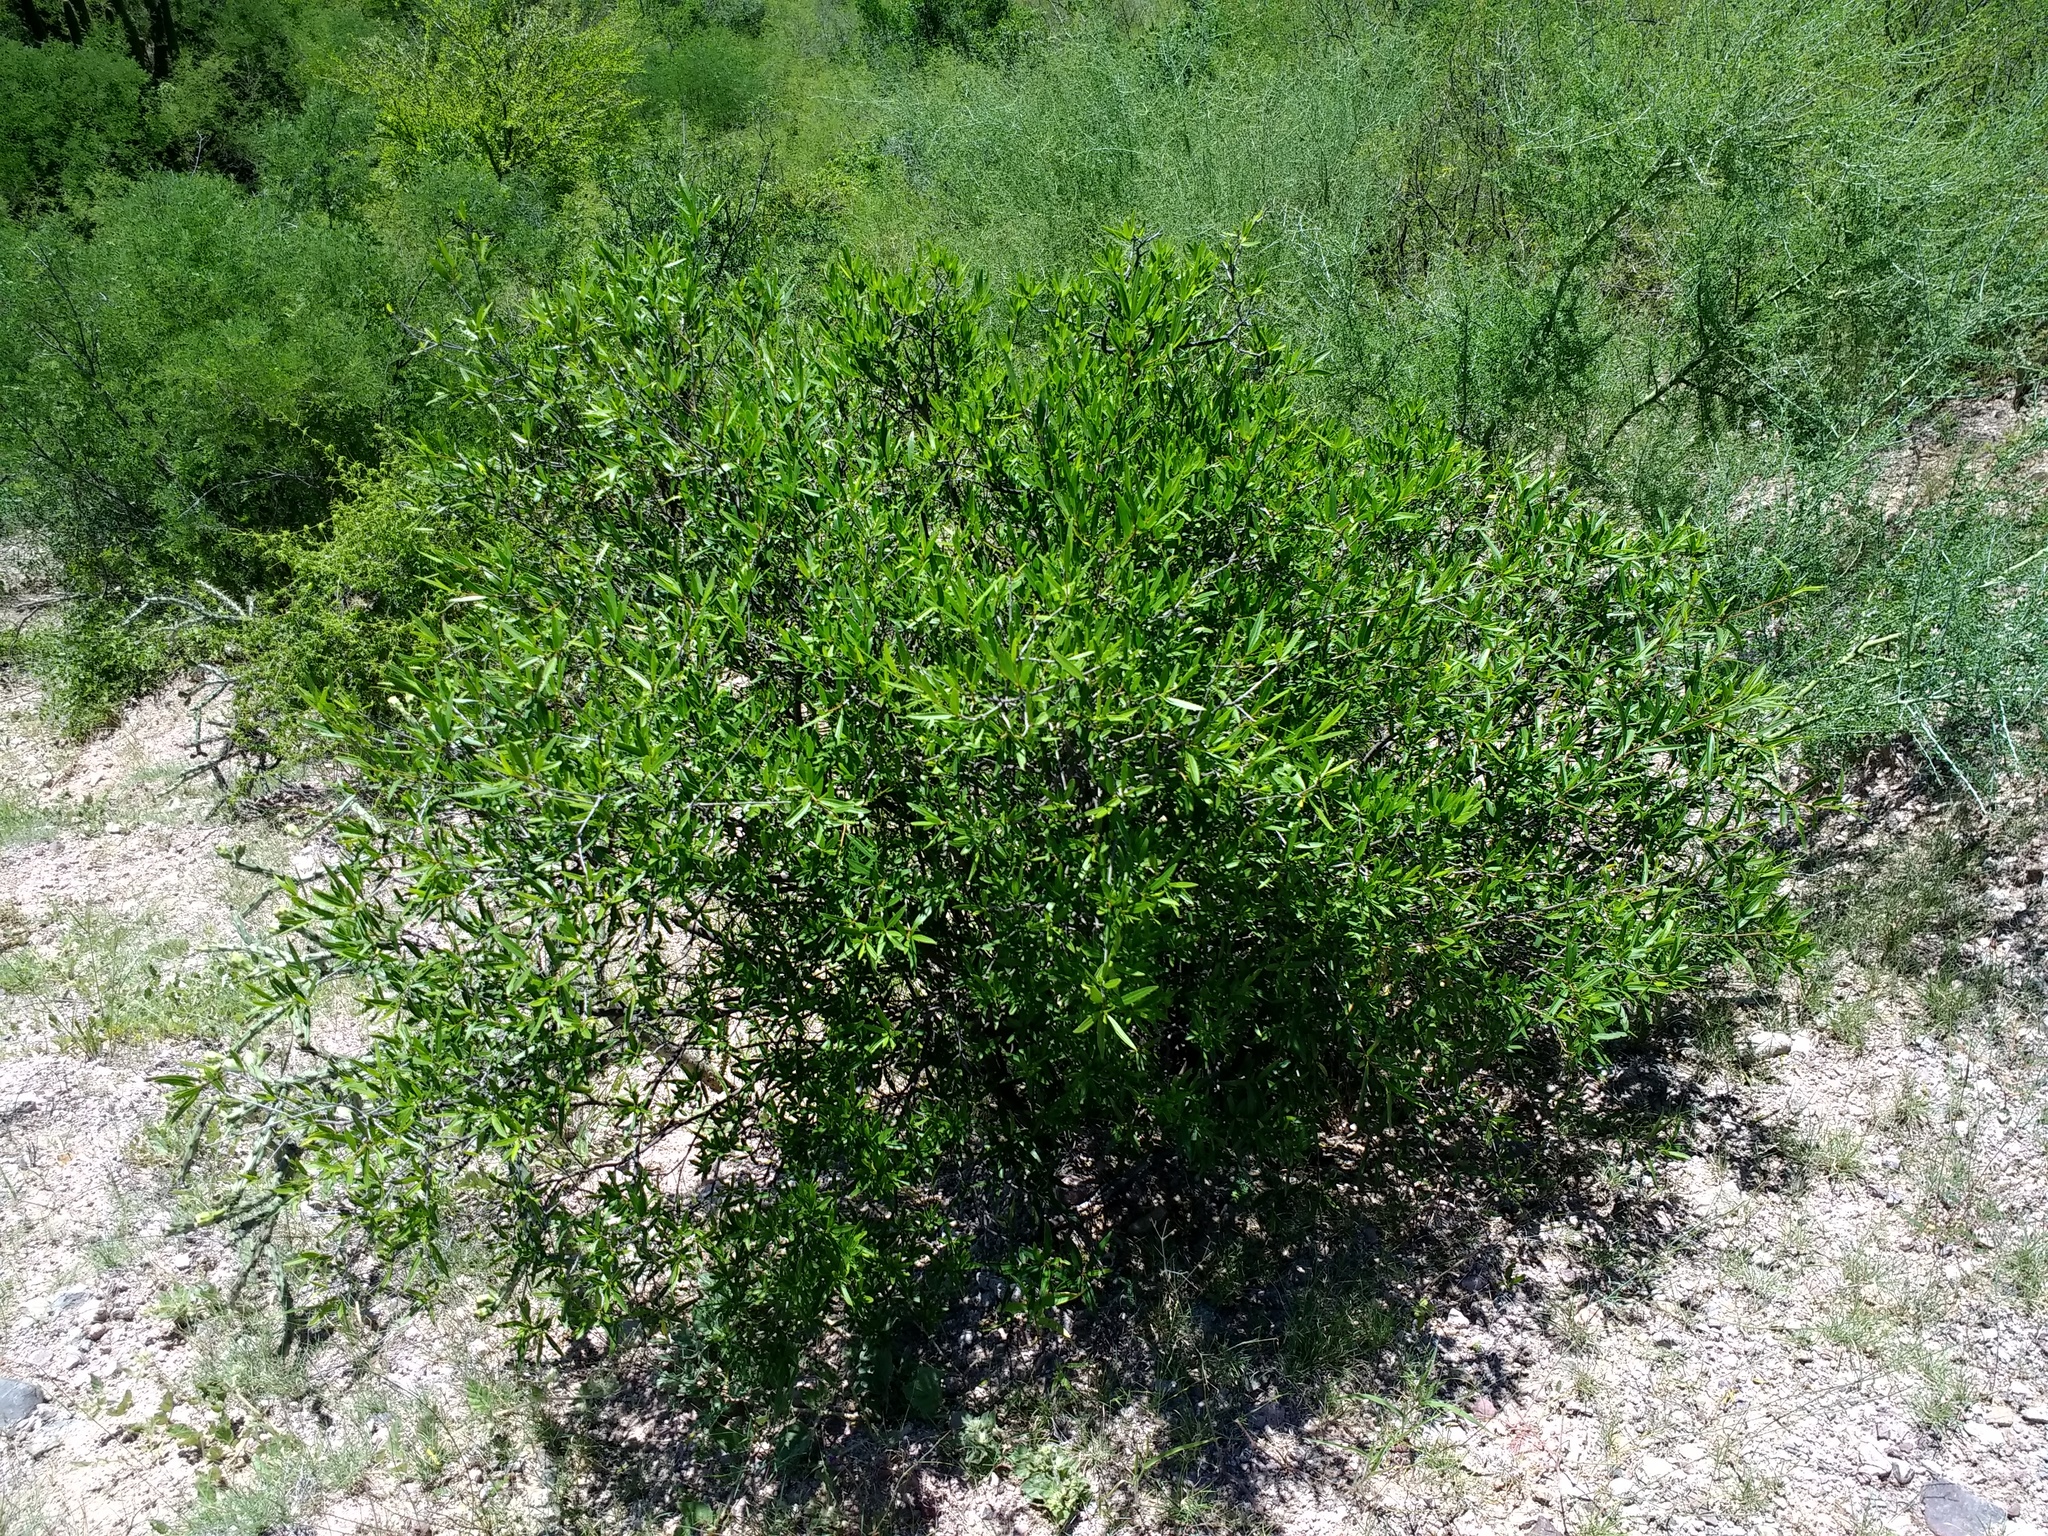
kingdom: Plantae
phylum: Tracheophyta
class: Magnoliopsida
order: Malpighiales
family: Euphorbiaceae
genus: Pleradenophora
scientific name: Pleradenophora bilocularis
